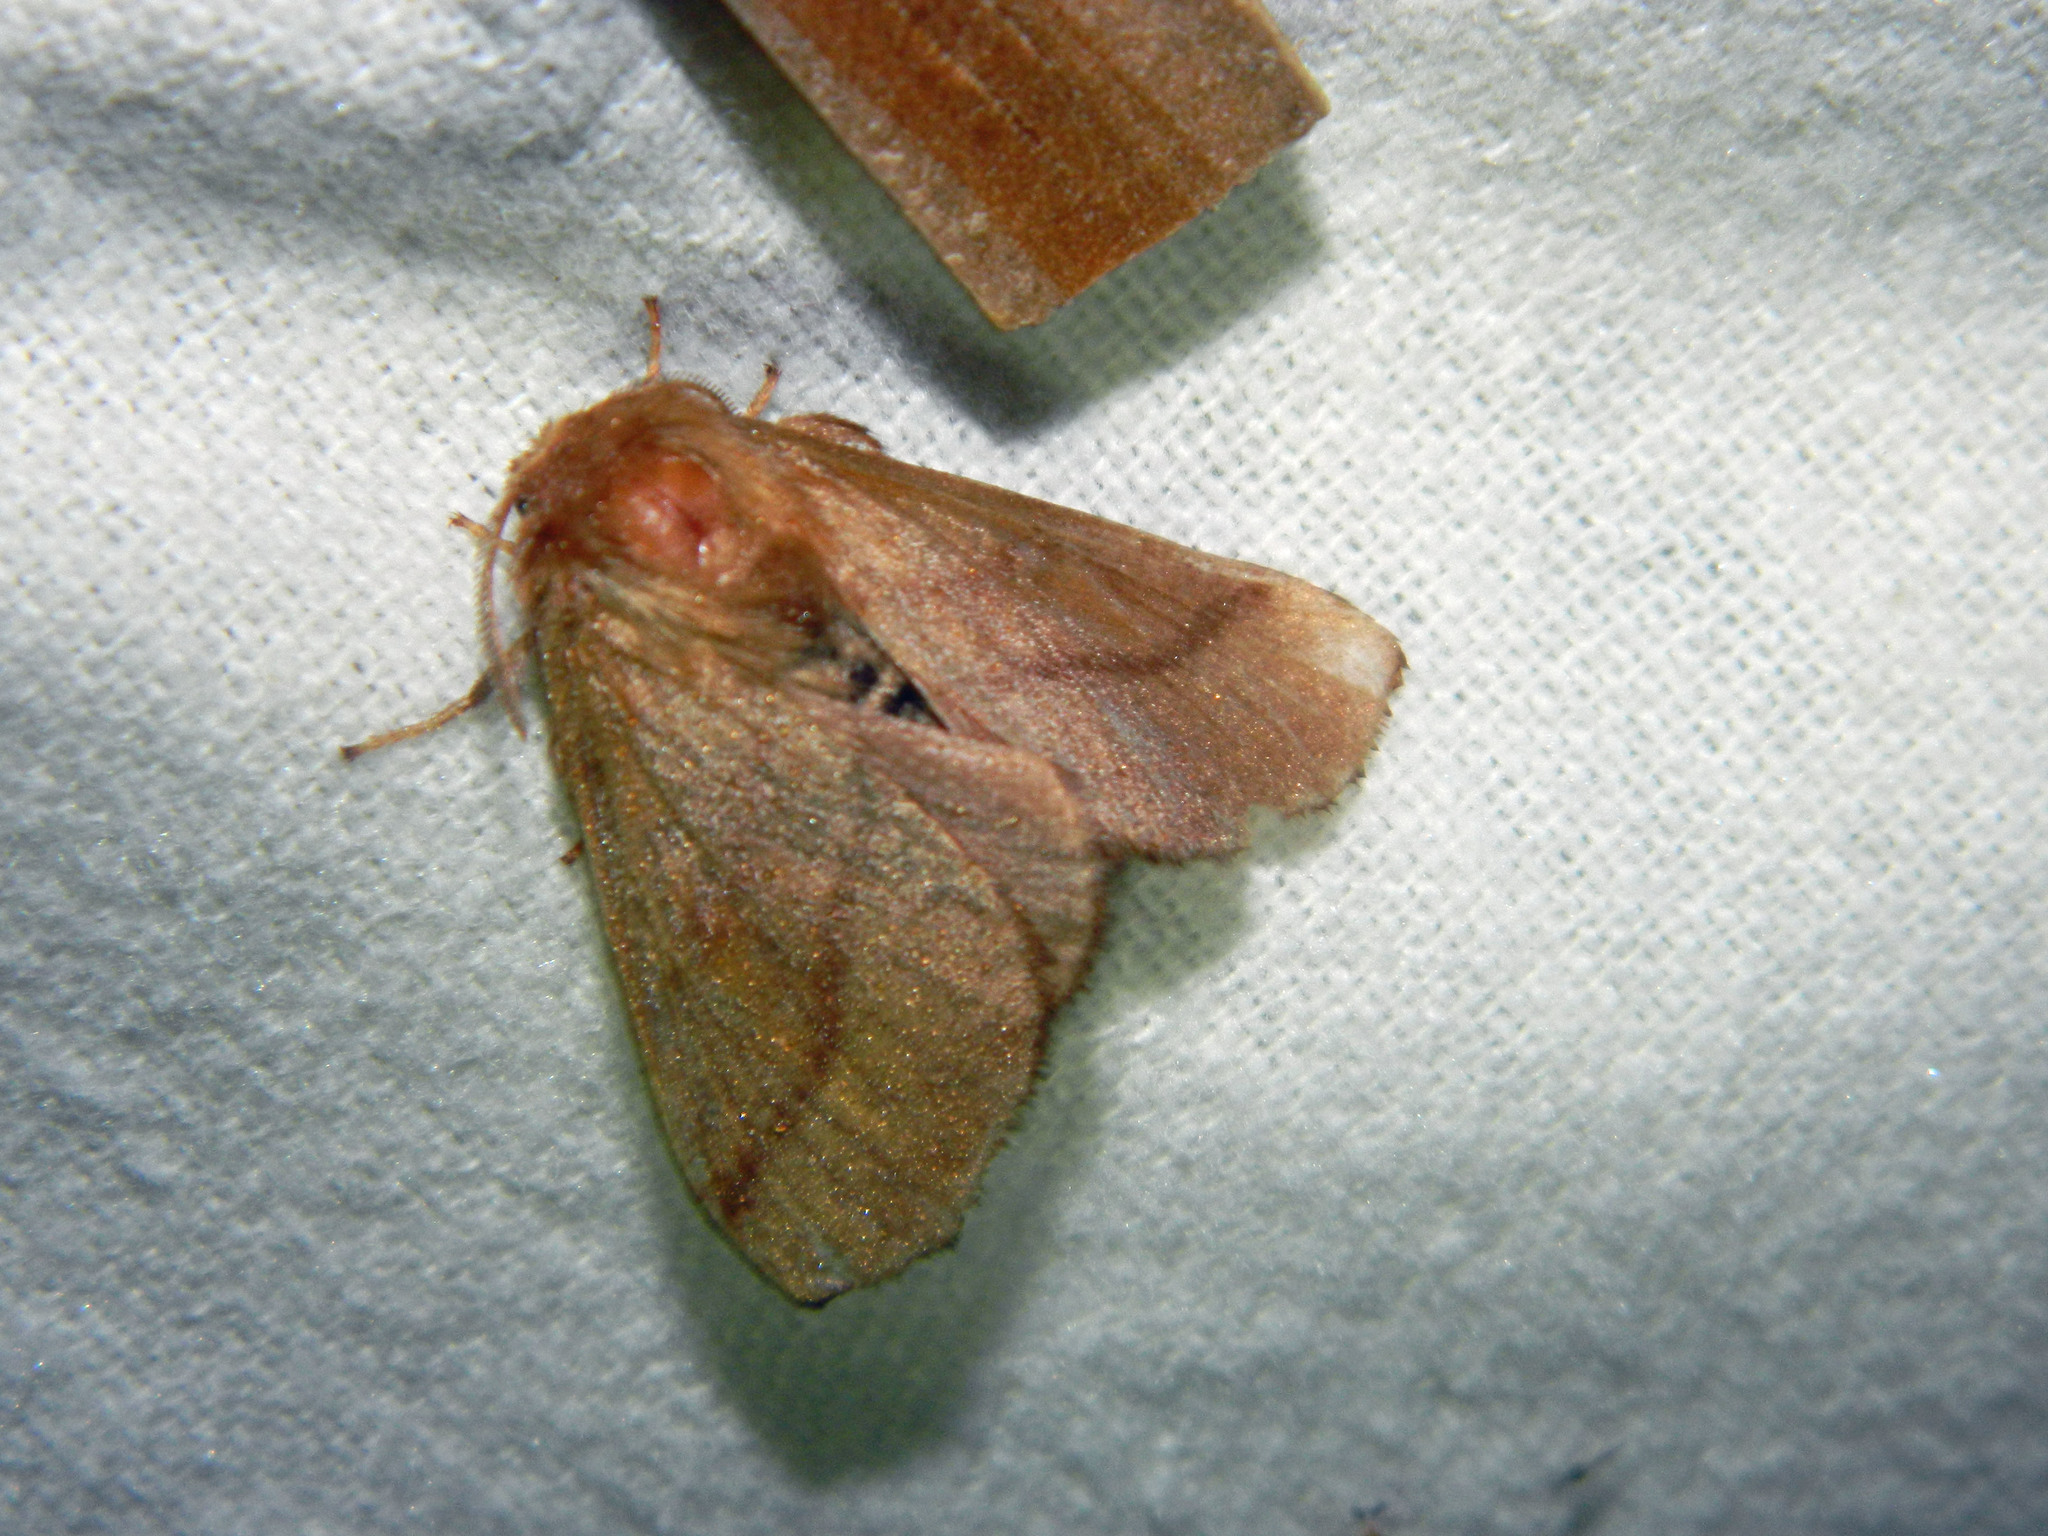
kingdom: Animalia
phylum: Arthropoda
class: Insecta
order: Lepidoptera
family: Lasiocampidae
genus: Malacosoma
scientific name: Malacosoma disstria
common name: Forest tent caterpillar
